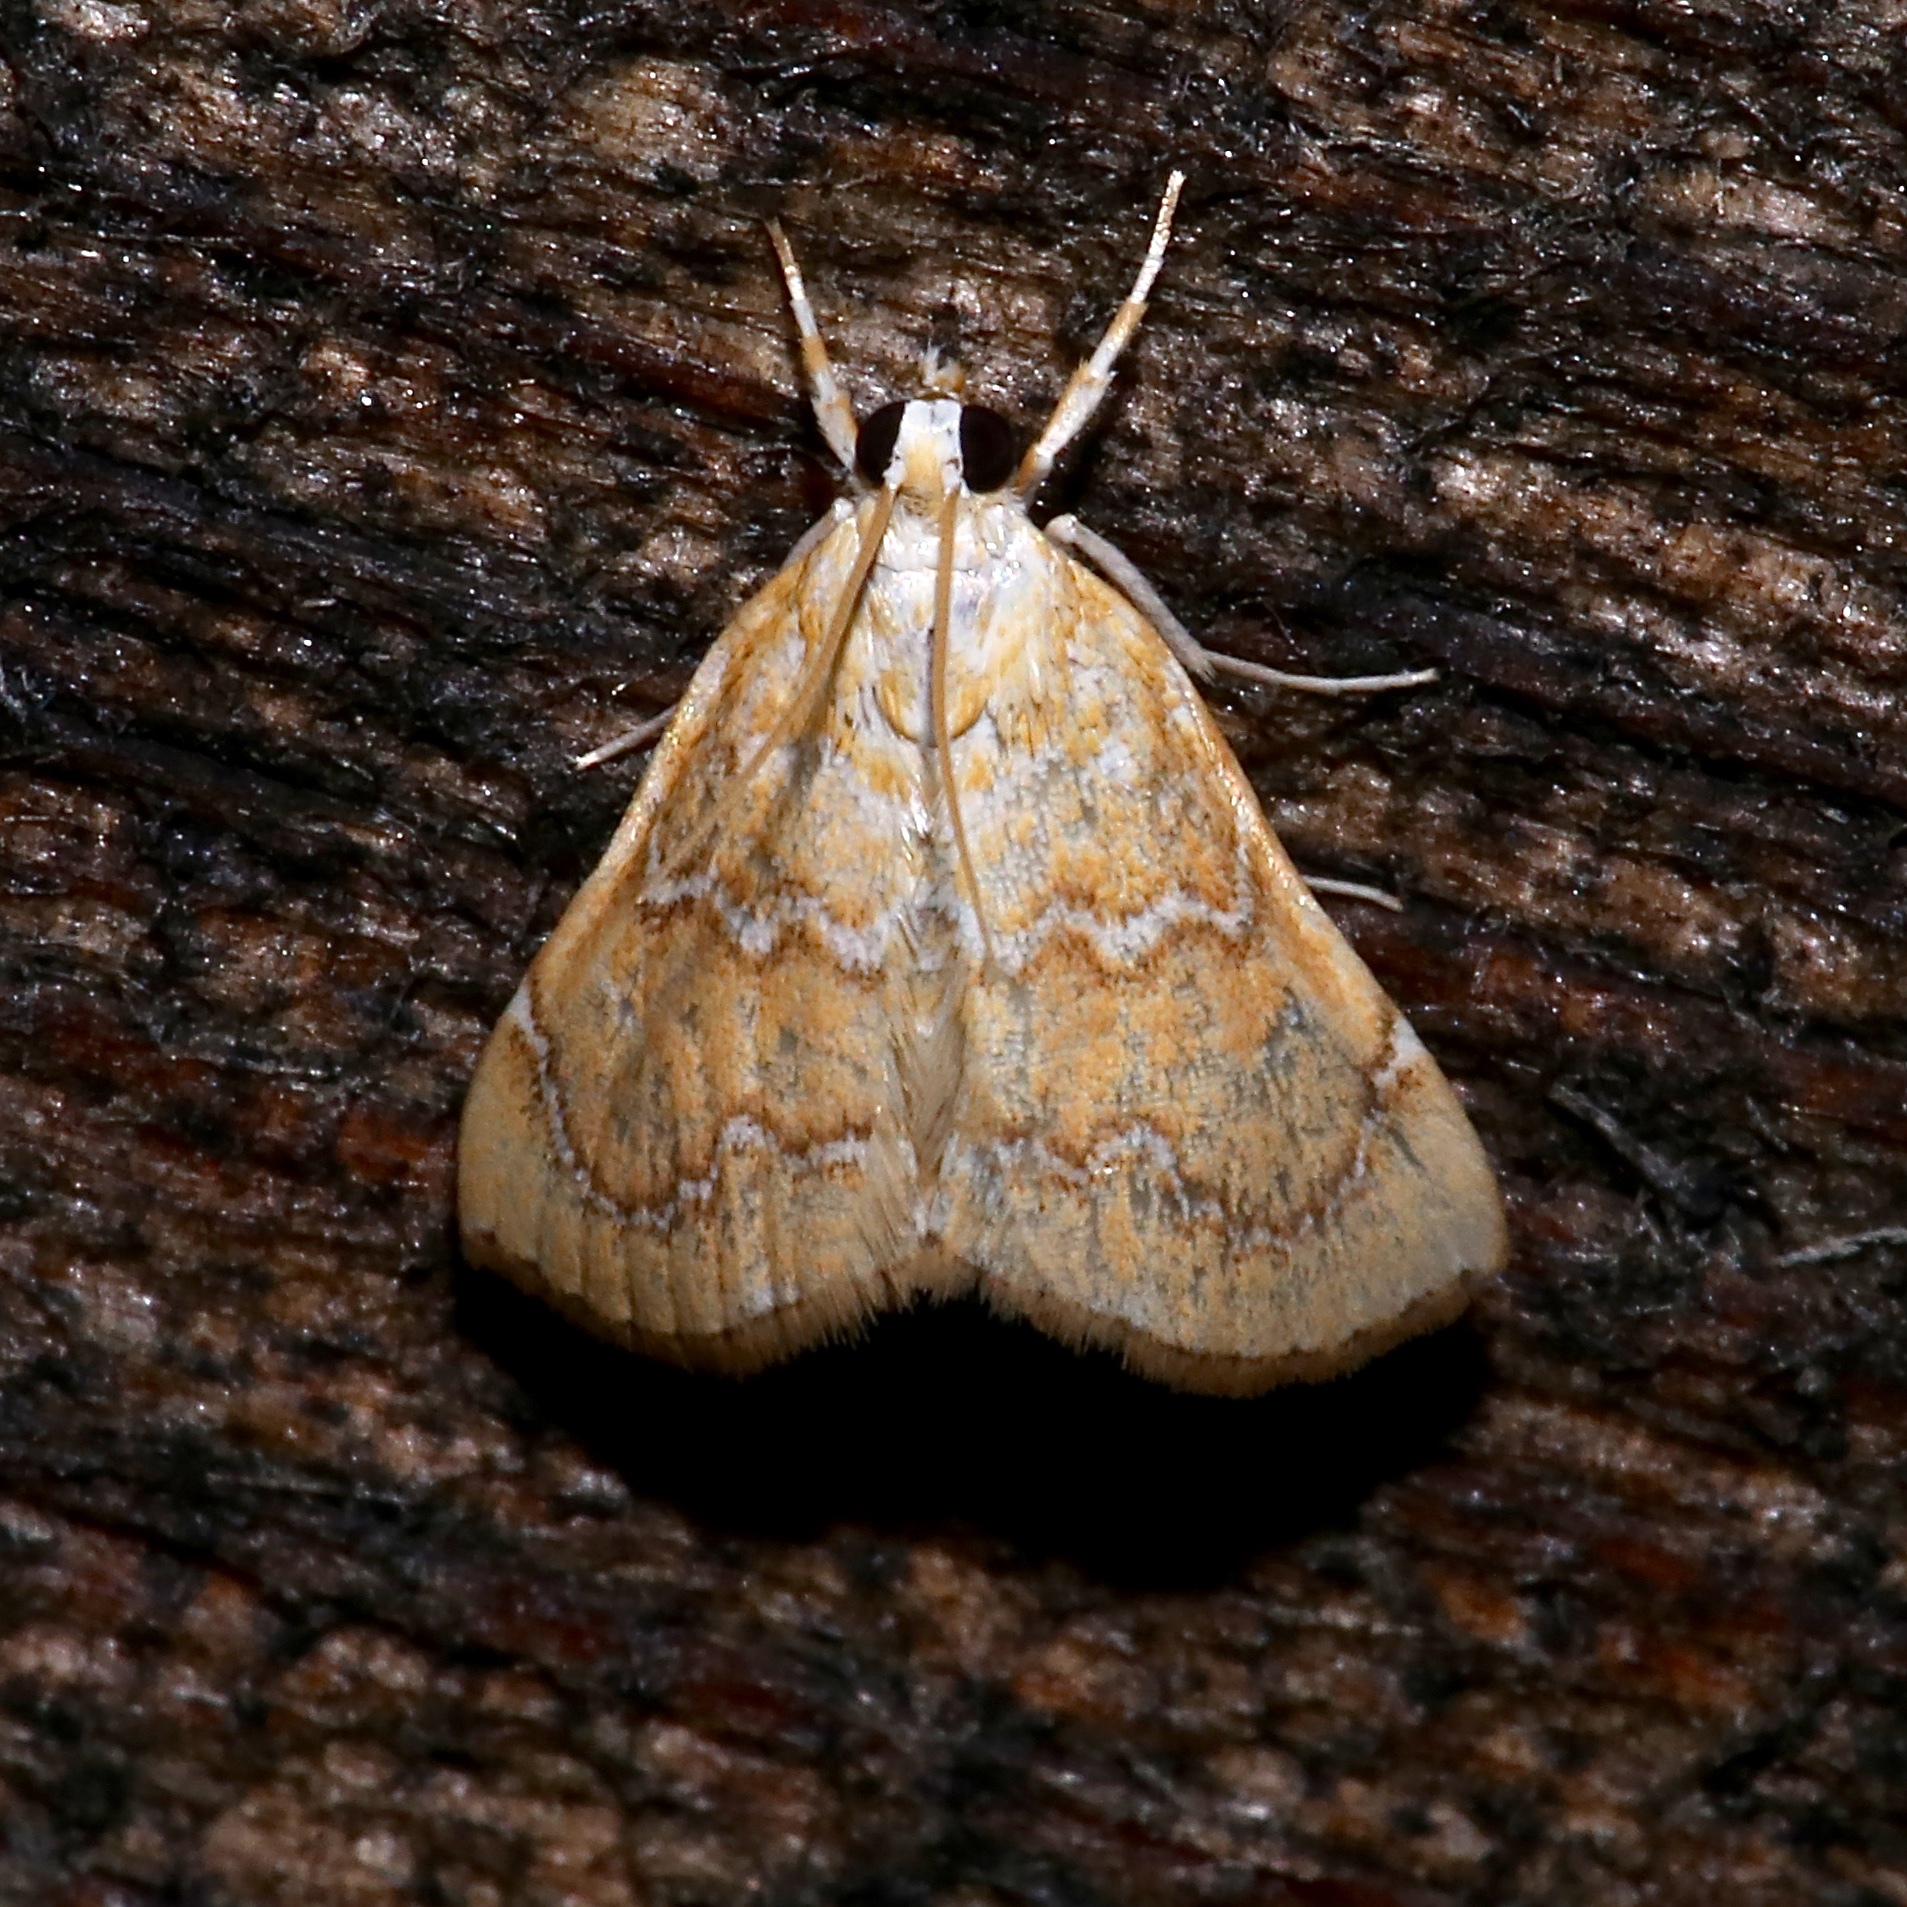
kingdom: Animalia
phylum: Arthropoda
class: Insecta
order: Lepidoptera
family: Crambidae
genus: Glaphyria
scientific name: Glaphyria sesquistrialis
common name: White-roped glaphyria
